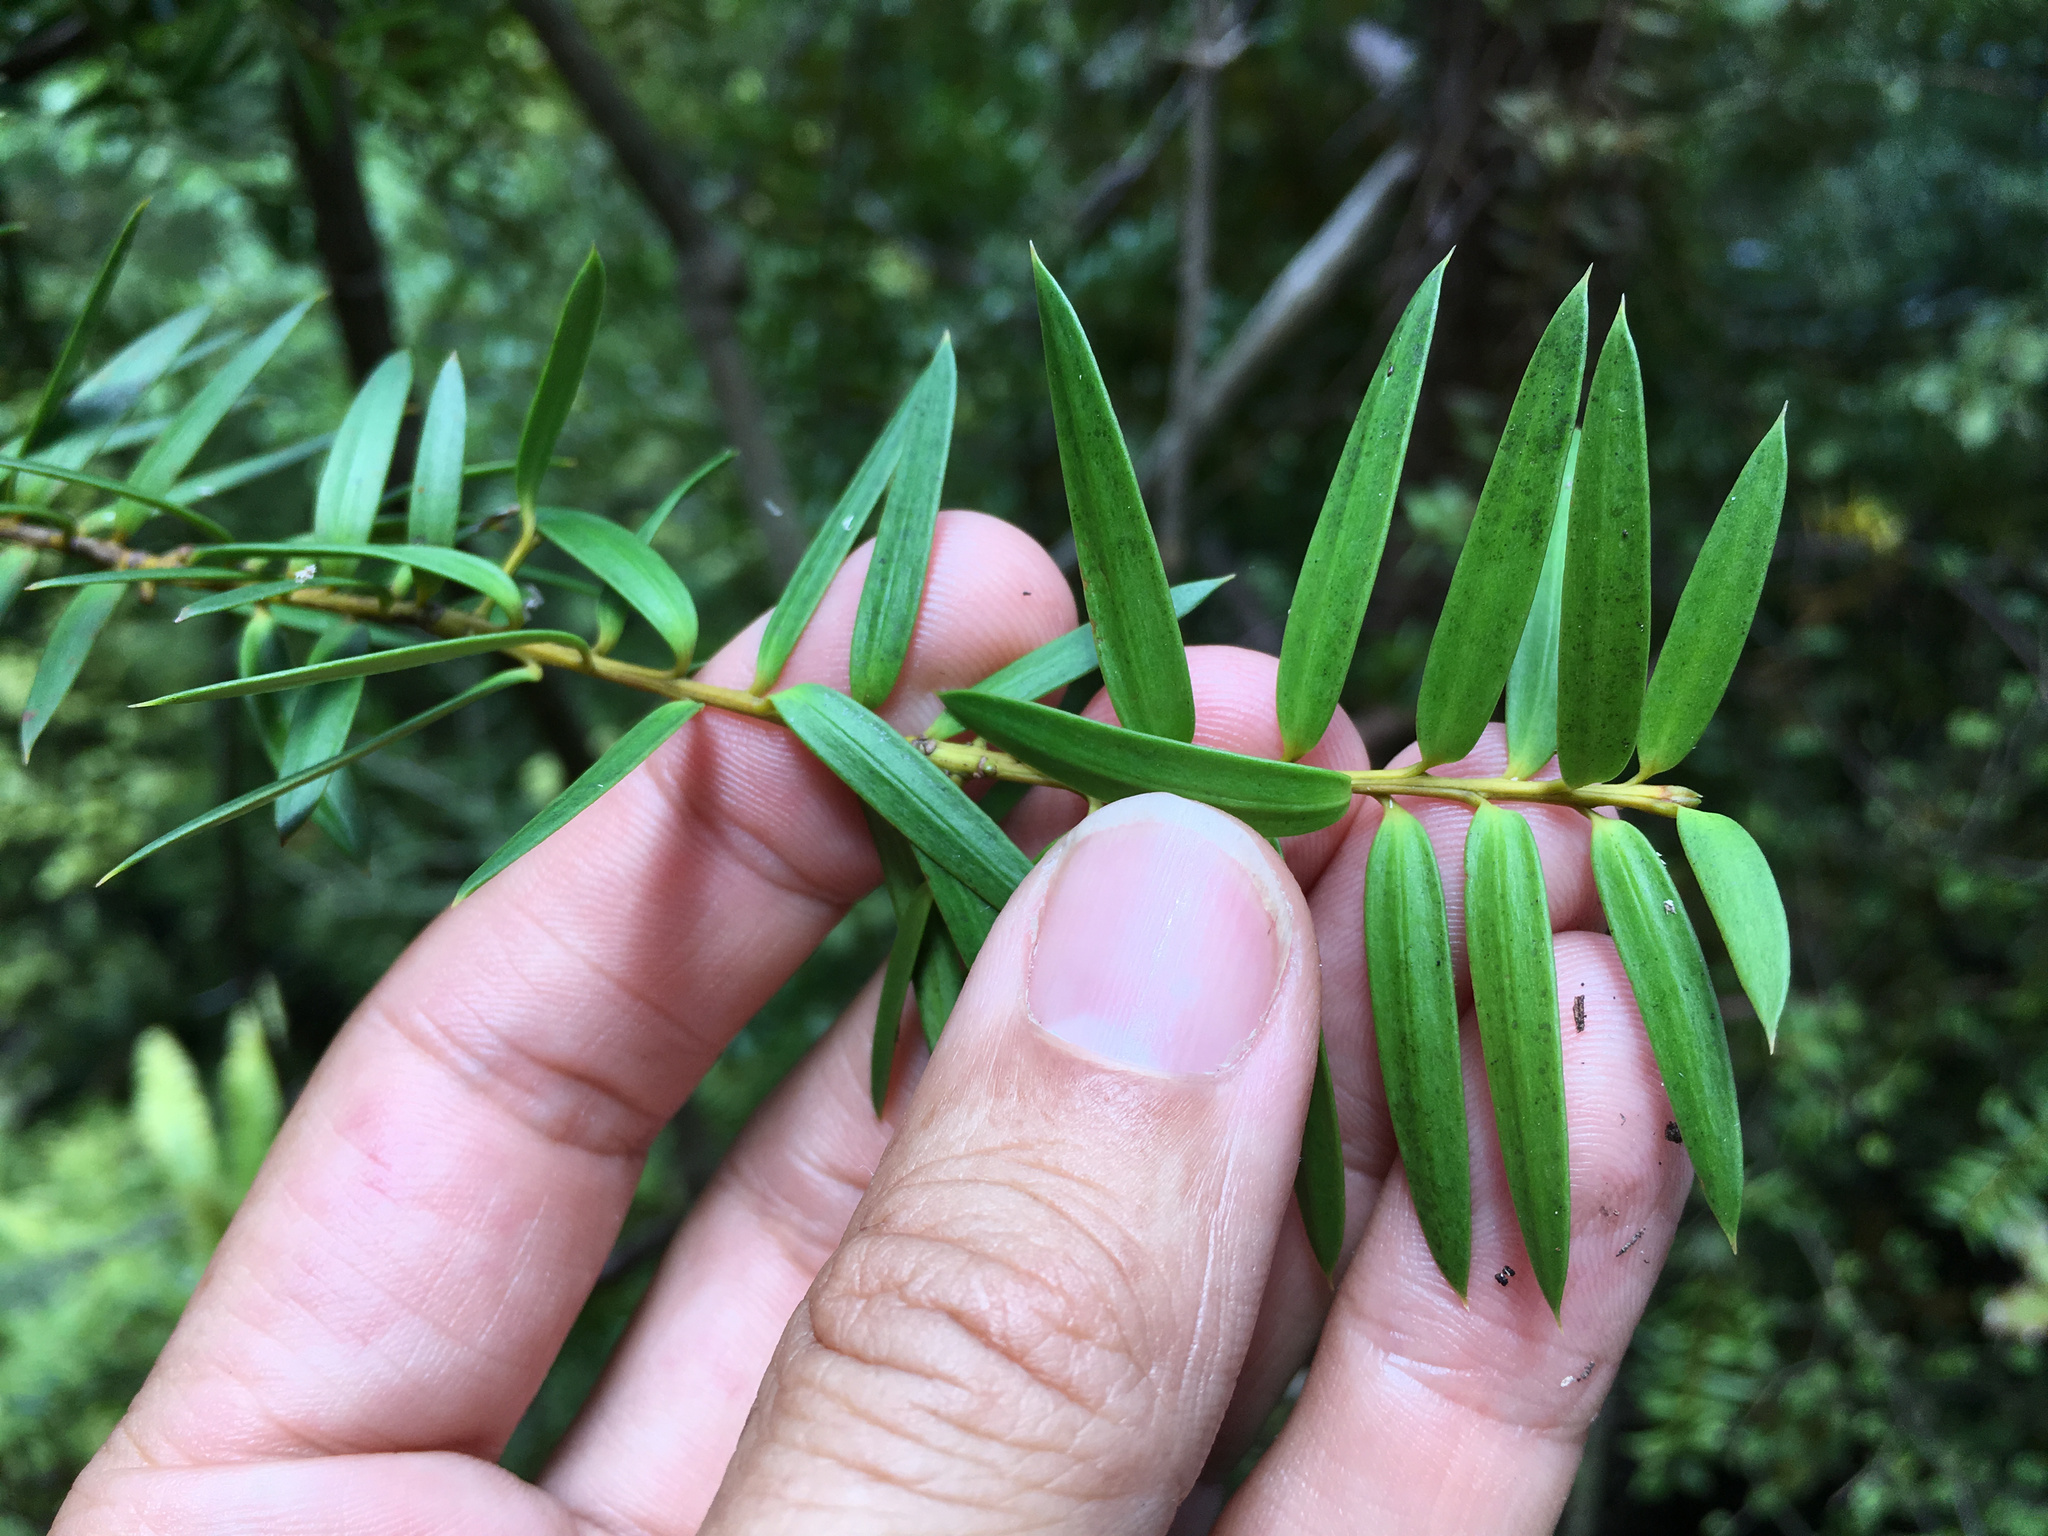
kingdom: Plantae
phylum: Tracheophyta
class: Pinopsida
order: Pinales
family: Podocarpaceae
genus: Podocarpus
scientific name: Podocarpus totara
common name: Totara
